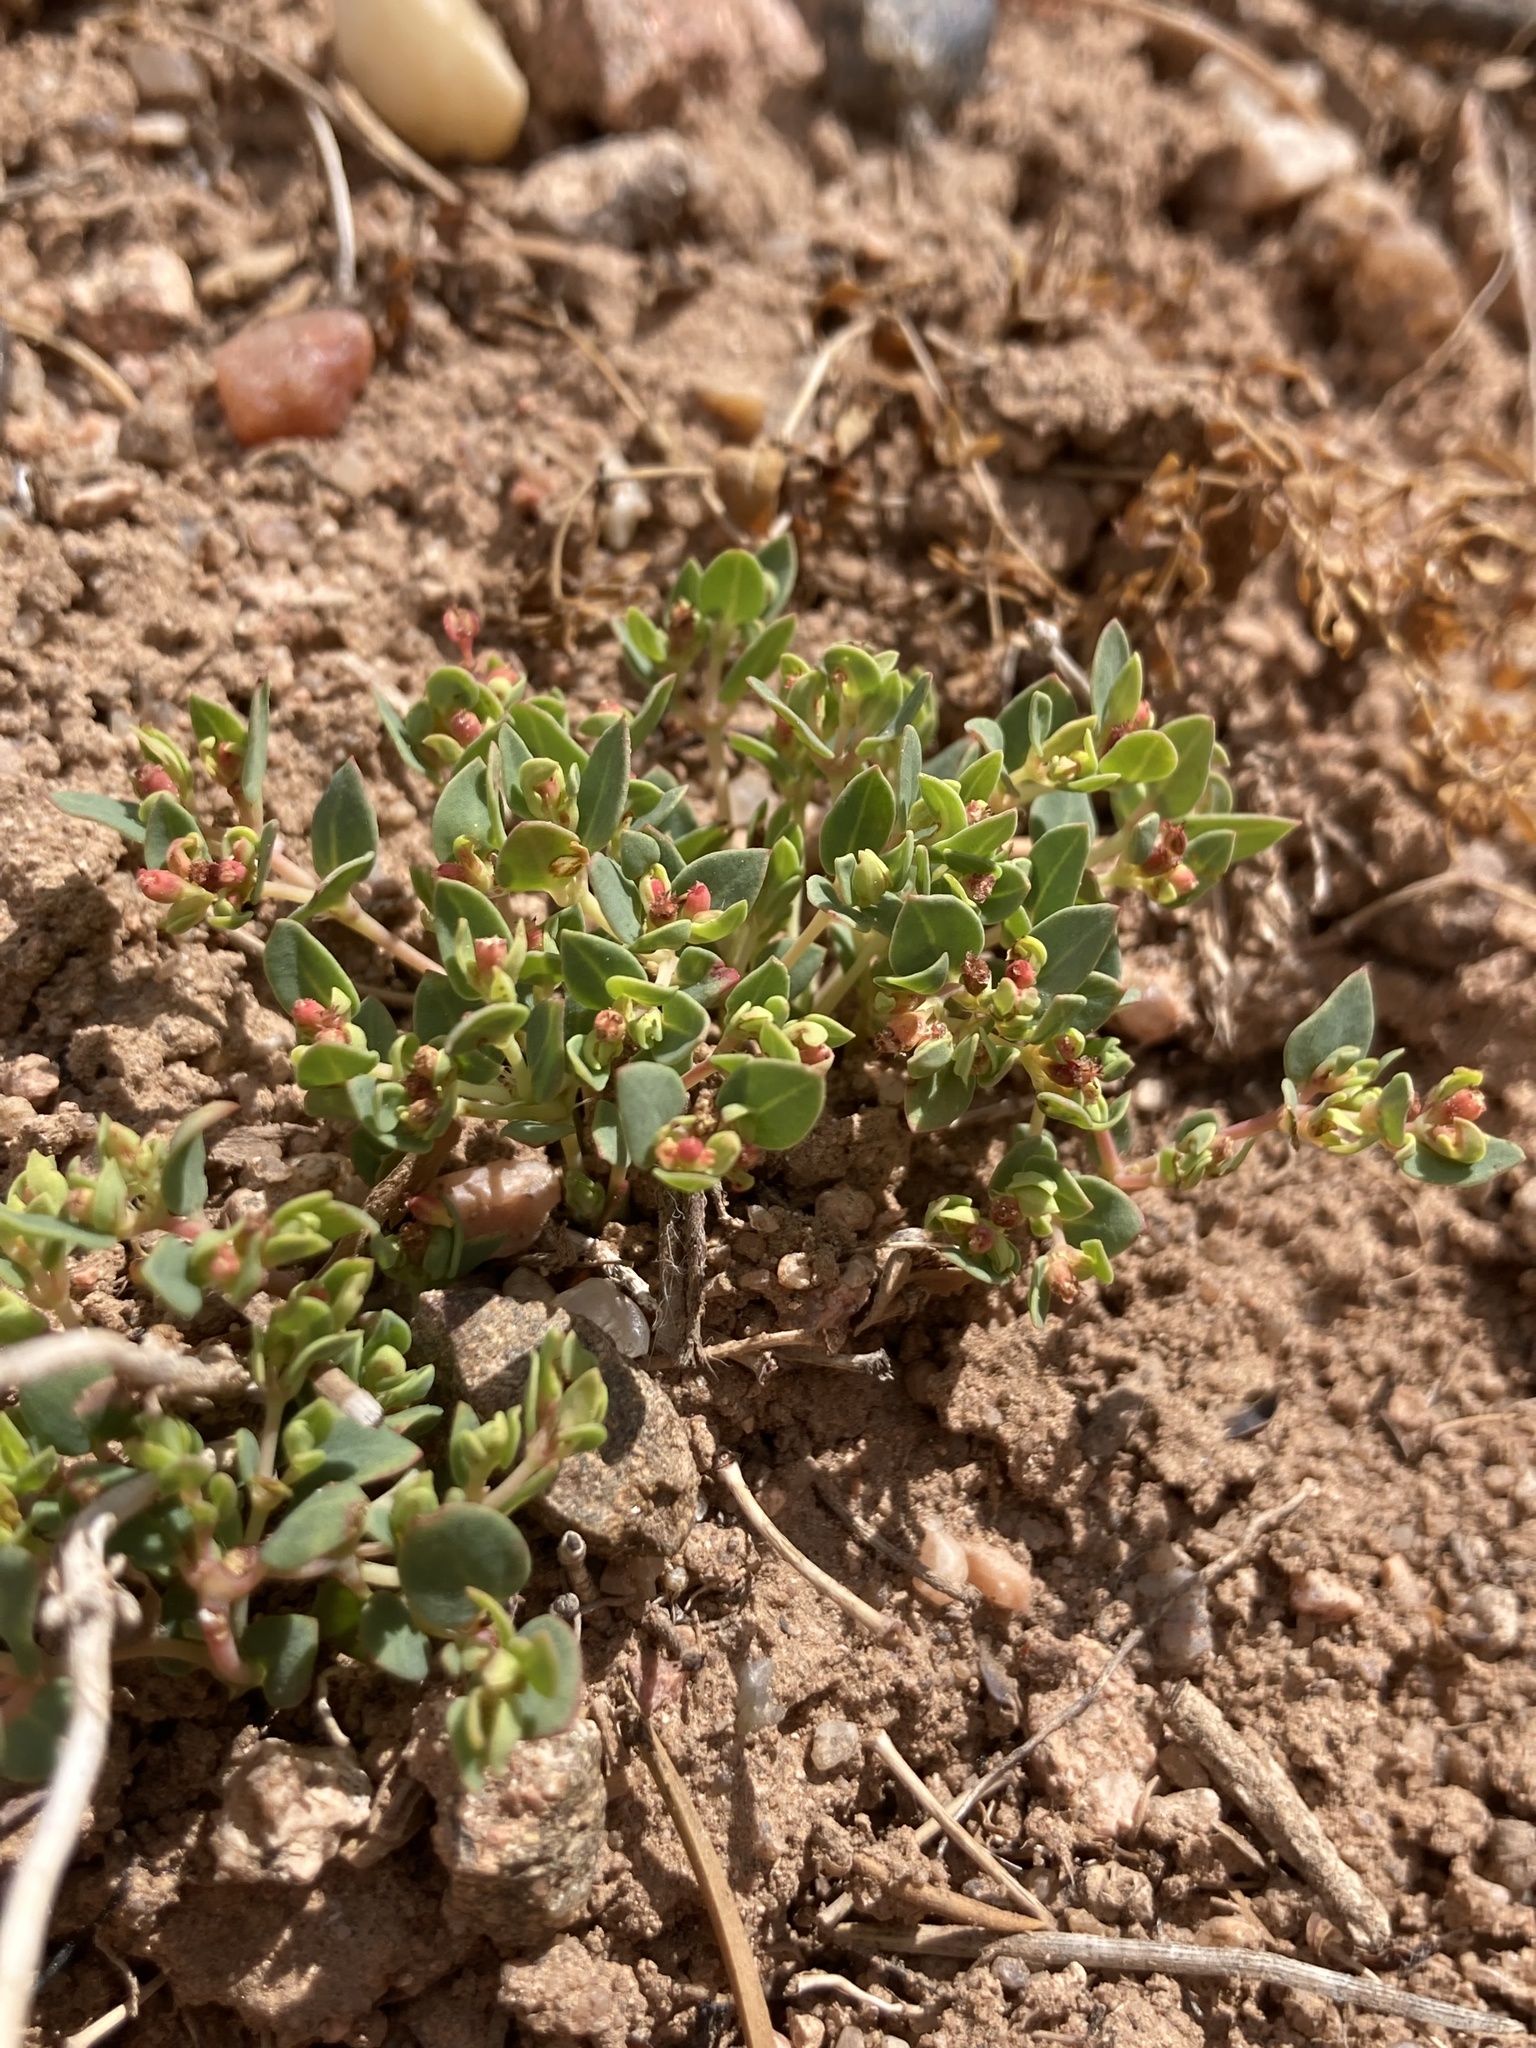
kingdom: Plantae
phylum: Tracheophyta
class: Magnoliopsida
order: Malpighiales
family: Euphorbiaceae
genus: Euphorbia
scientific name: Euphorbia fendleri
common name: Fendler's euphorbia
